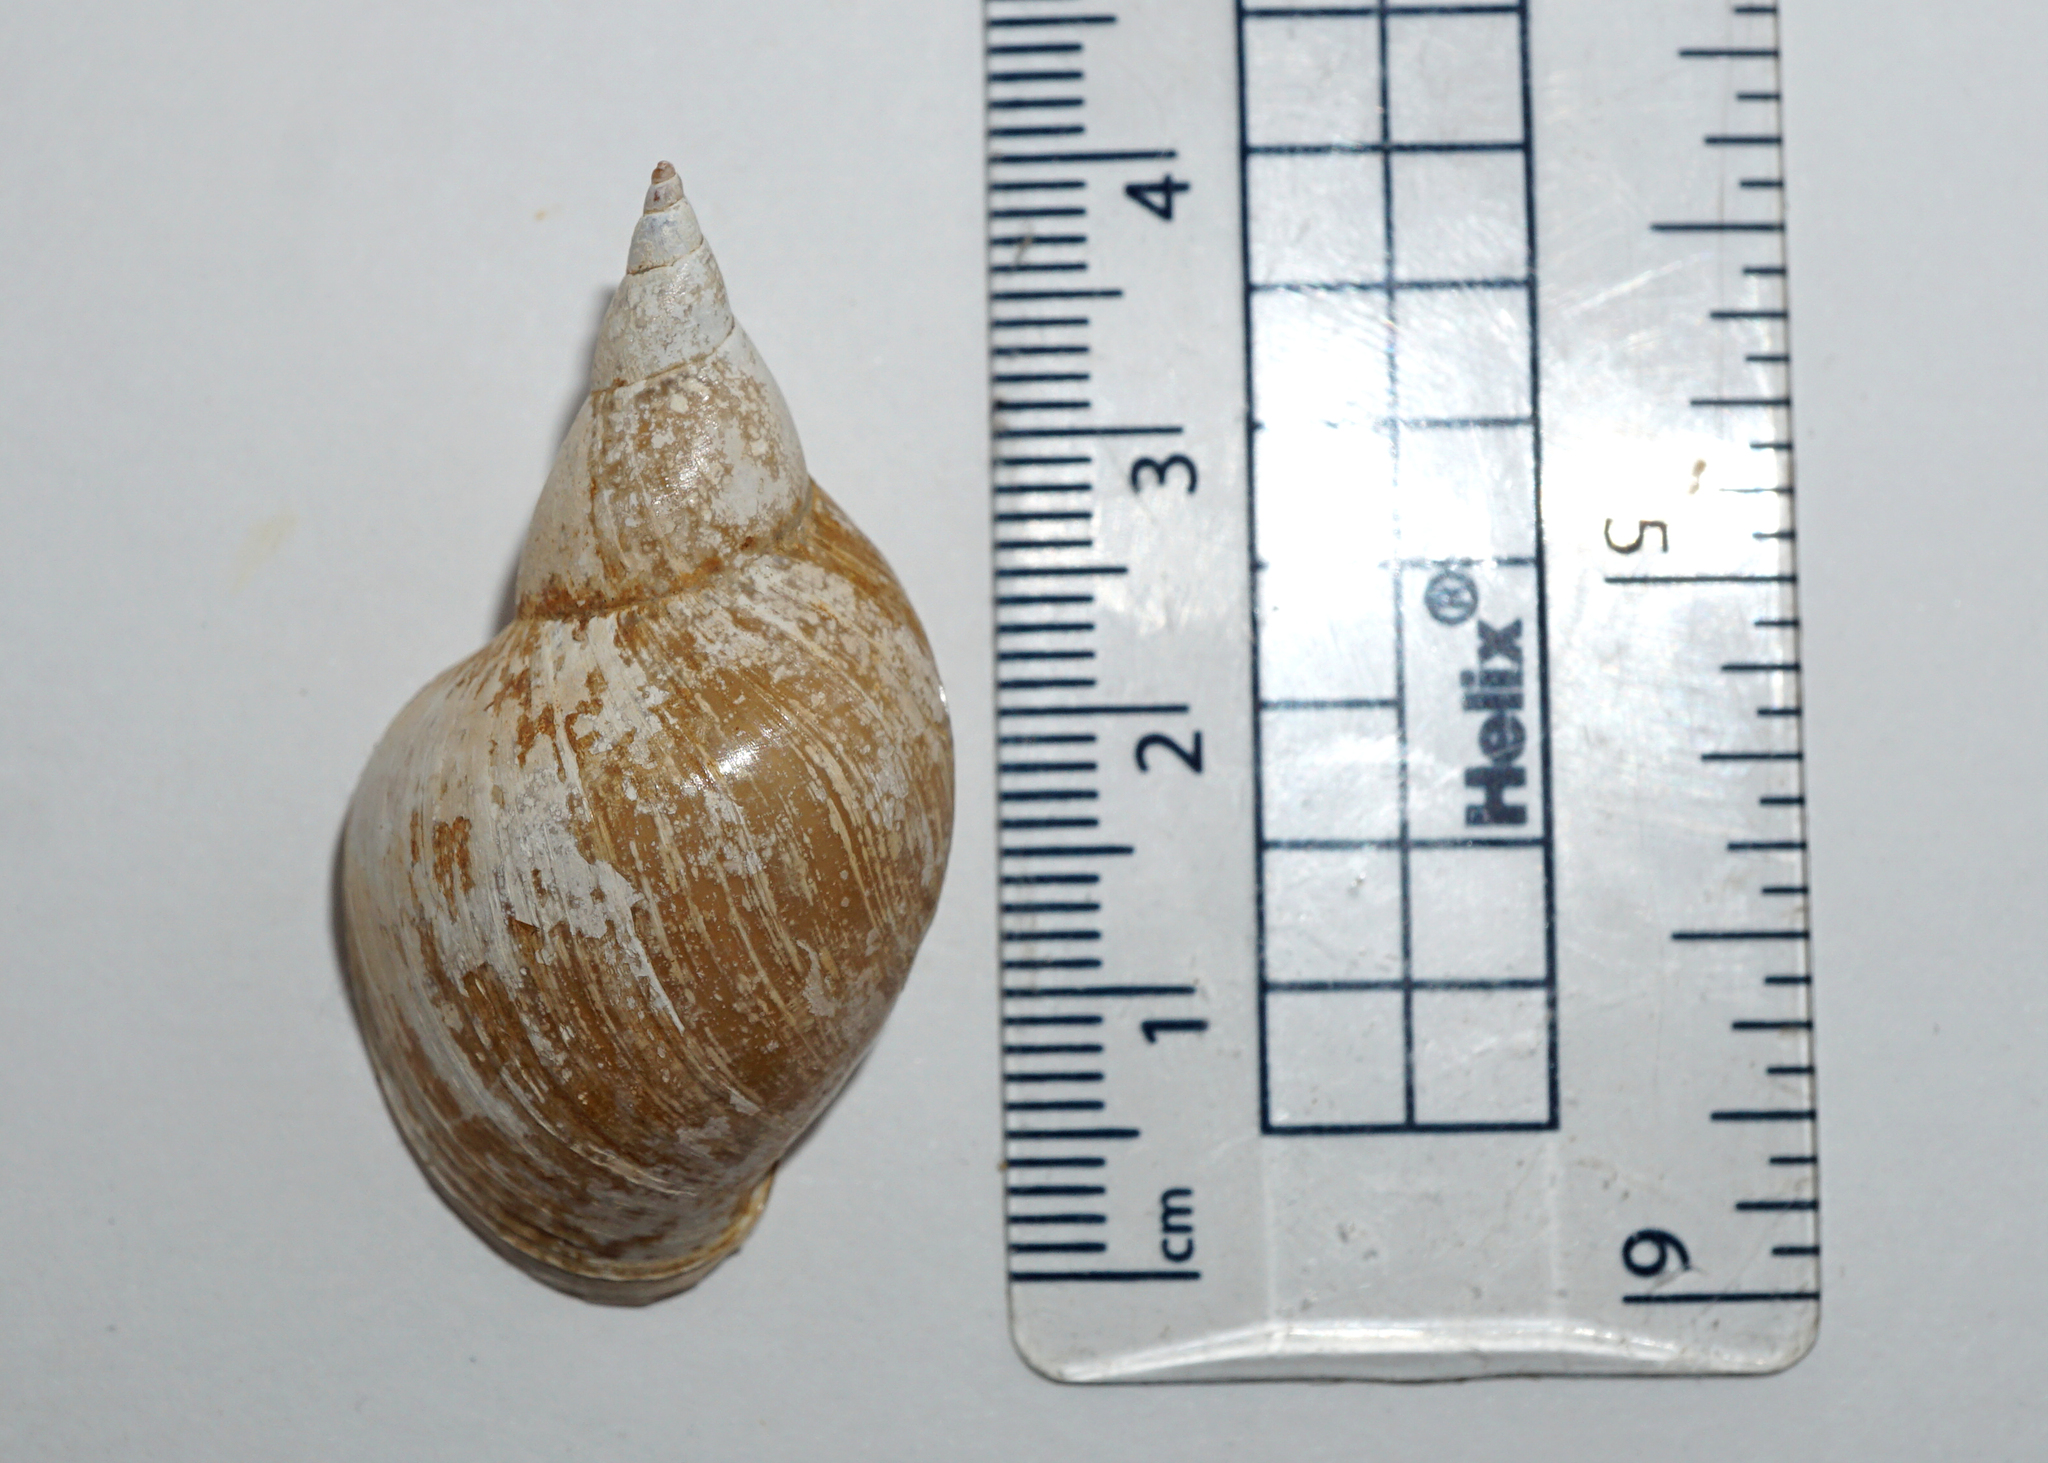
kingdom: Animalia
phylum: Mollusca
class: Gastropoda
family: Lymnaeidae
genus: Lymnaea
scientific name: Lymnaea stagnalis
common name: Great pond snail
